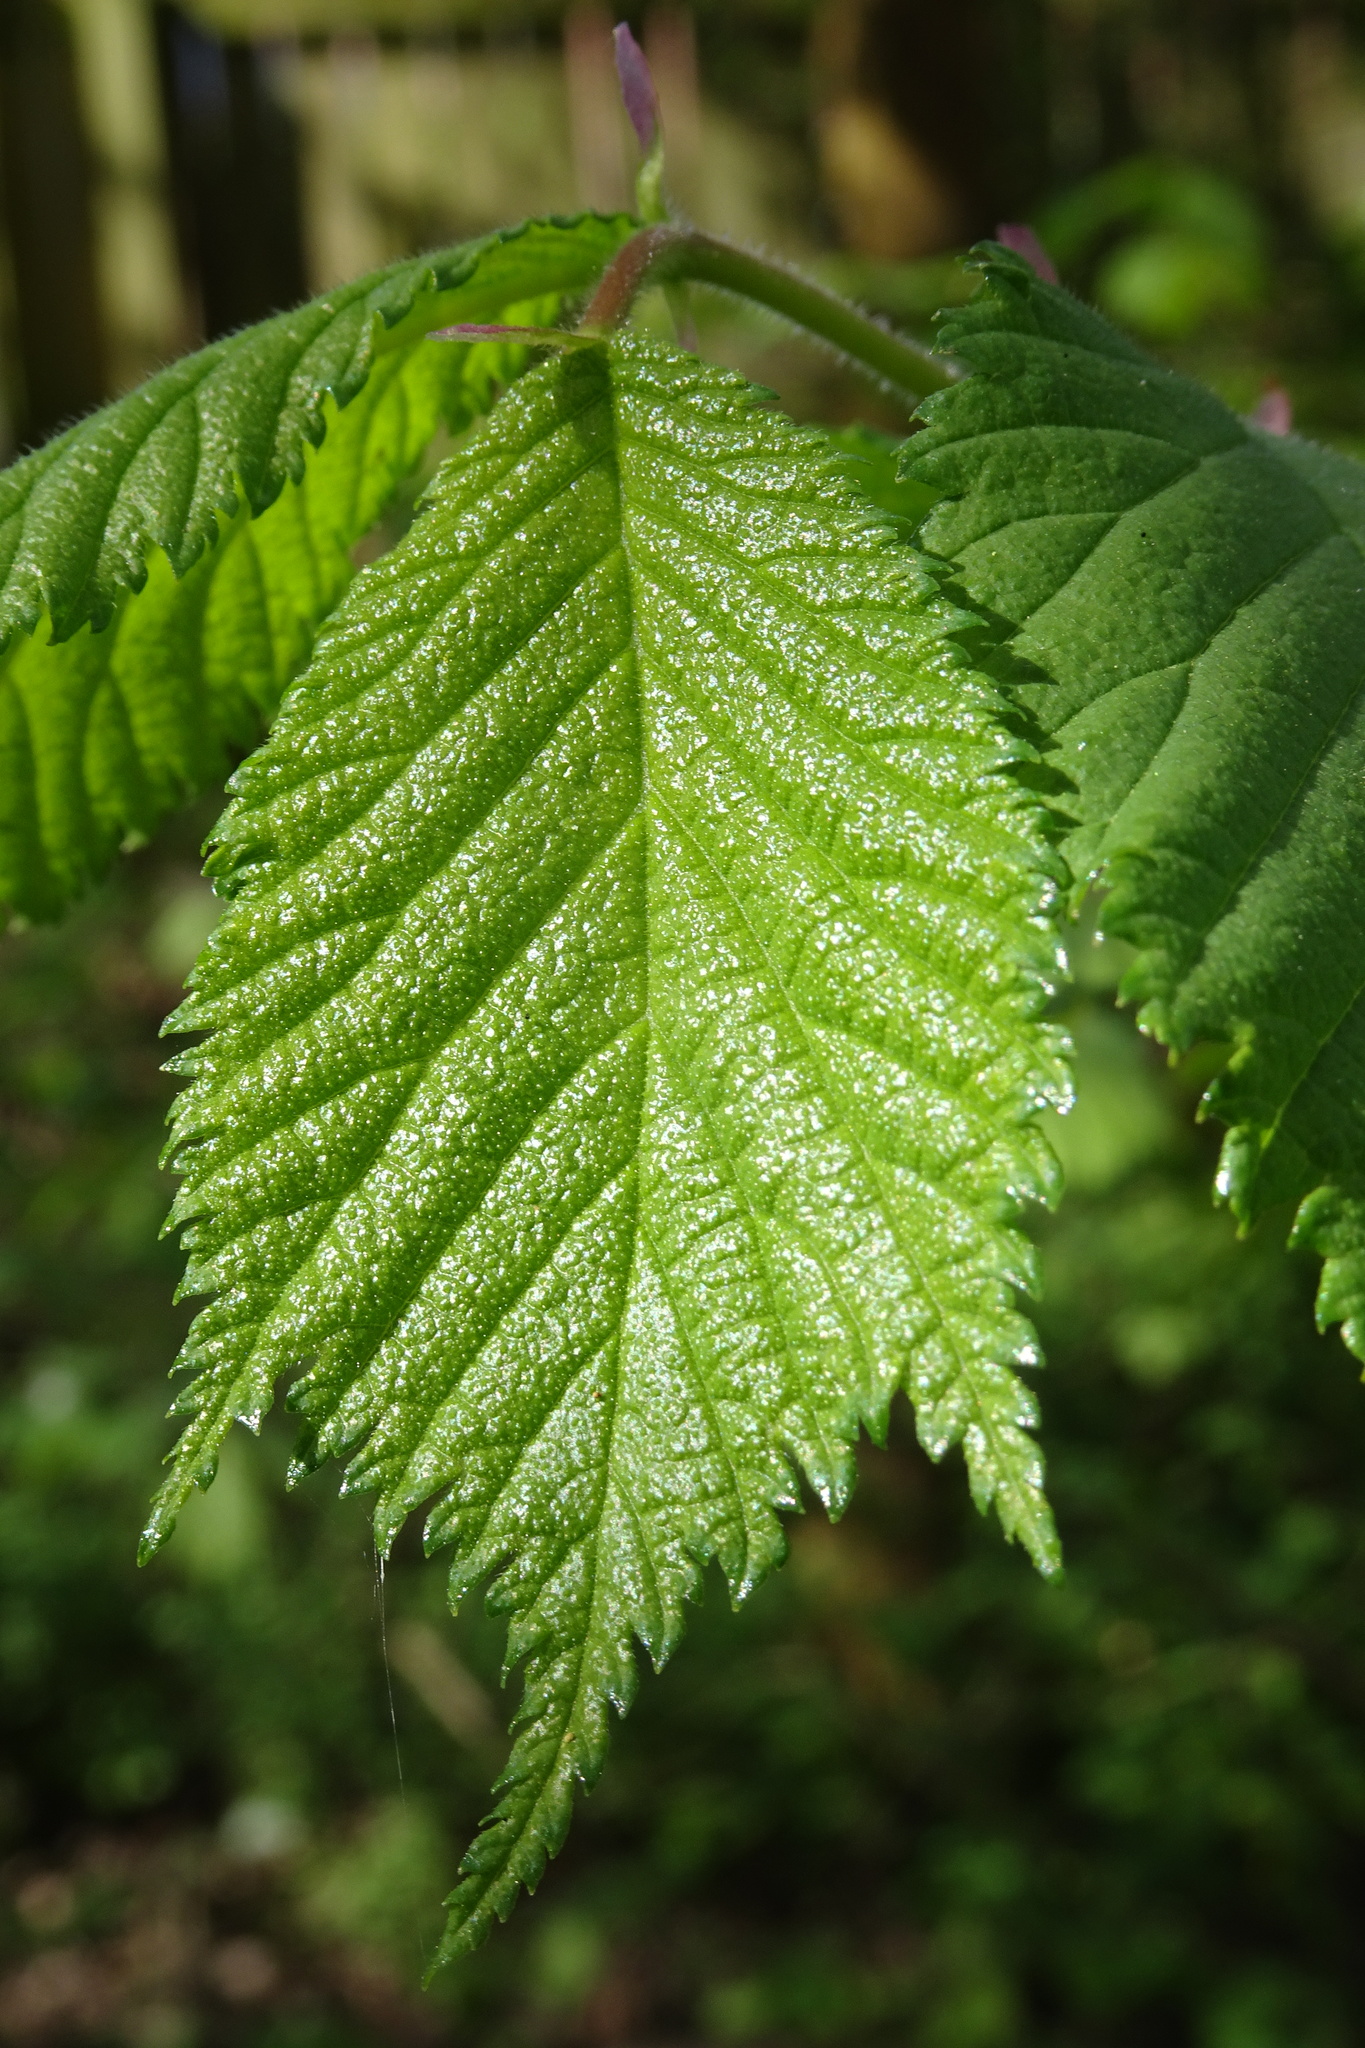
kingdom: Plantae
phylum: Tracheophyta
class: Magnoliopsida
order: Rosales
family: Ulmaceae
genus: Ulmus
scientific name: Ulmus glabra
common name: Wych elm
